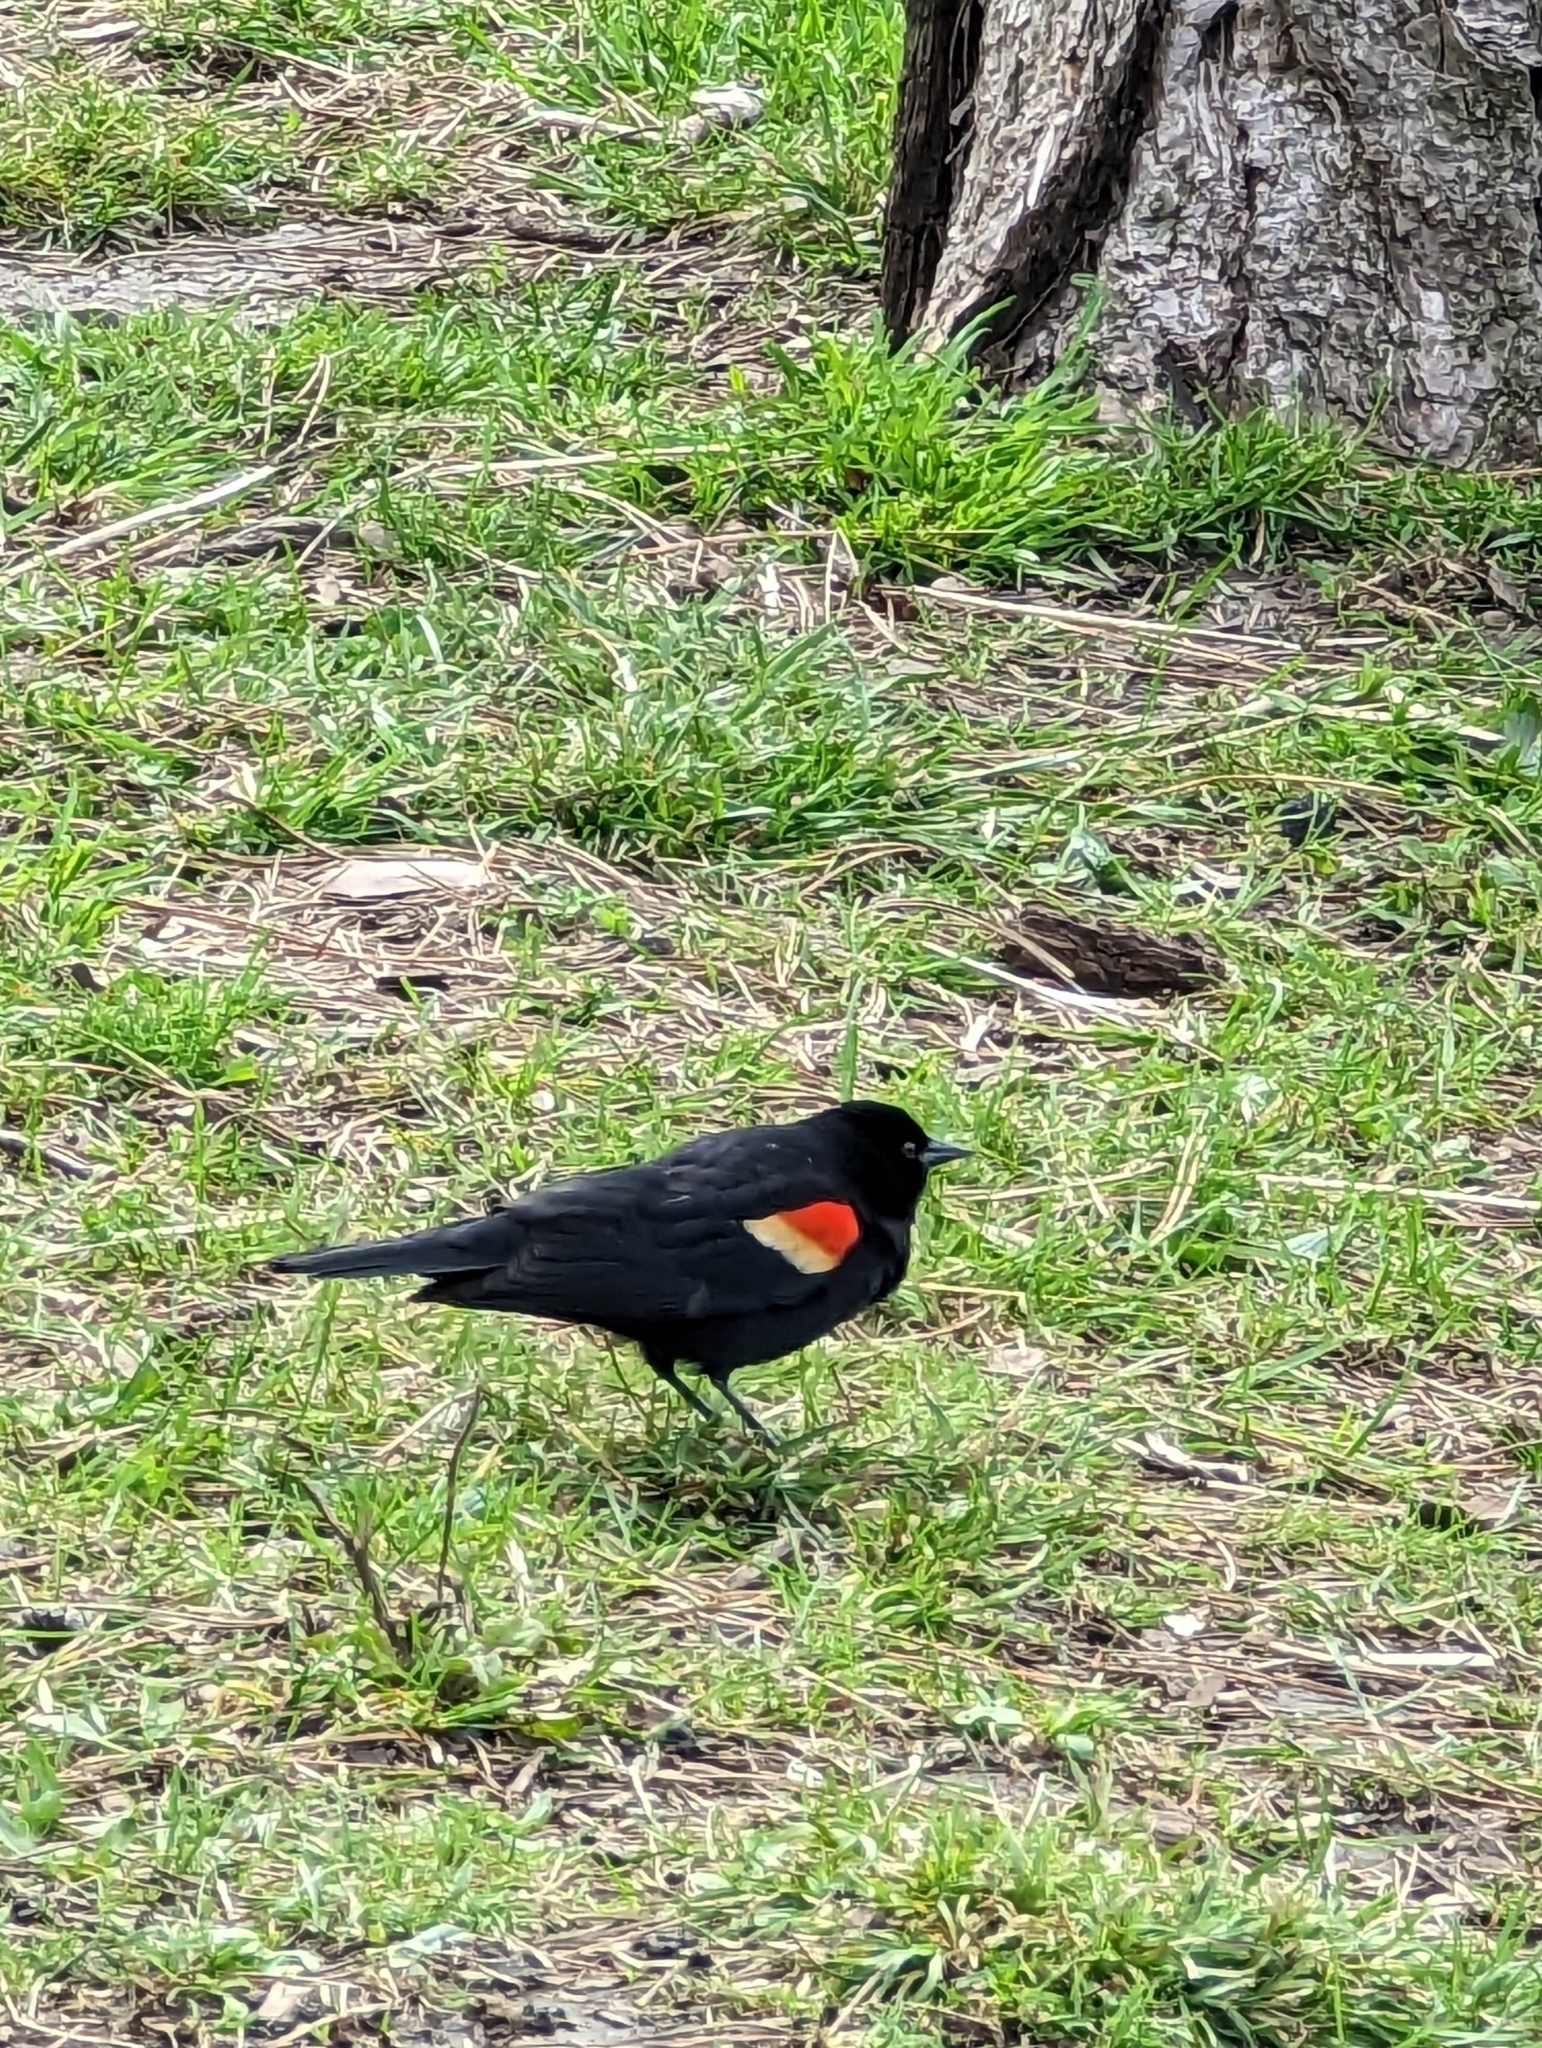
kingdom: Animalia
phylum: Chordata
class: Aves
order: Passeriformes
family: Icteridae
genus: Agelaius
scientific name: Agelaius phoeniceus
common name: Red-winged blackbird
